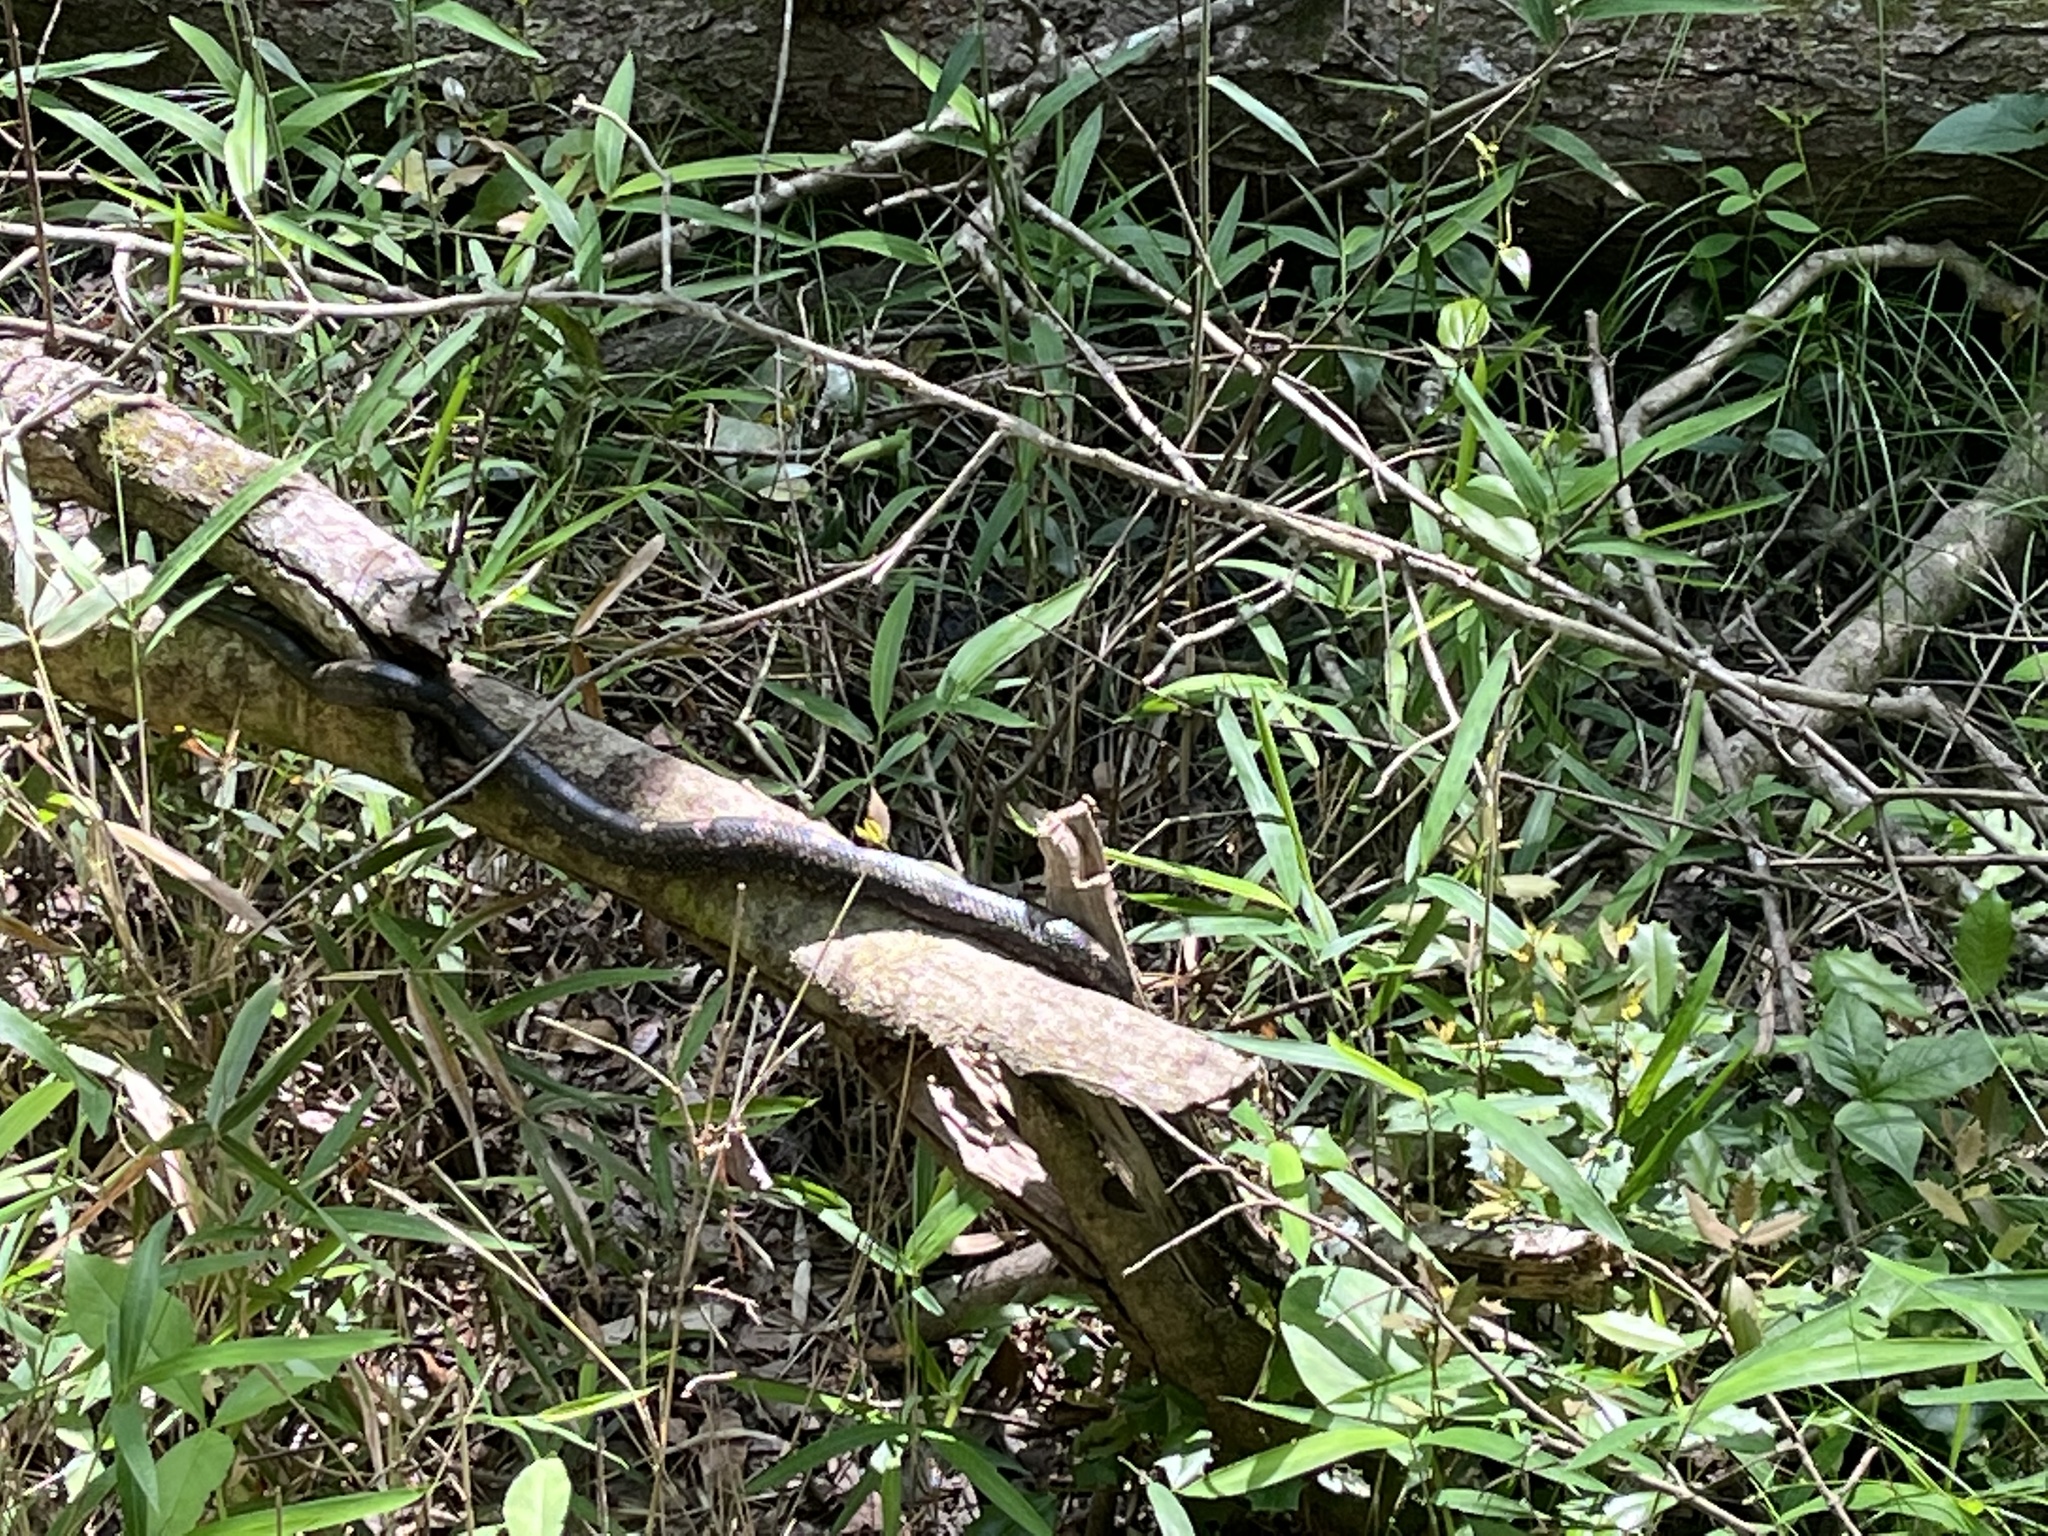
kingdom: Animalia
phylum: Chordata
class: Squamata
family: Colubridae
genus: Pantherophis
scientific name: Pantherophis alleghaniensis
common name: Eastern rat snake
